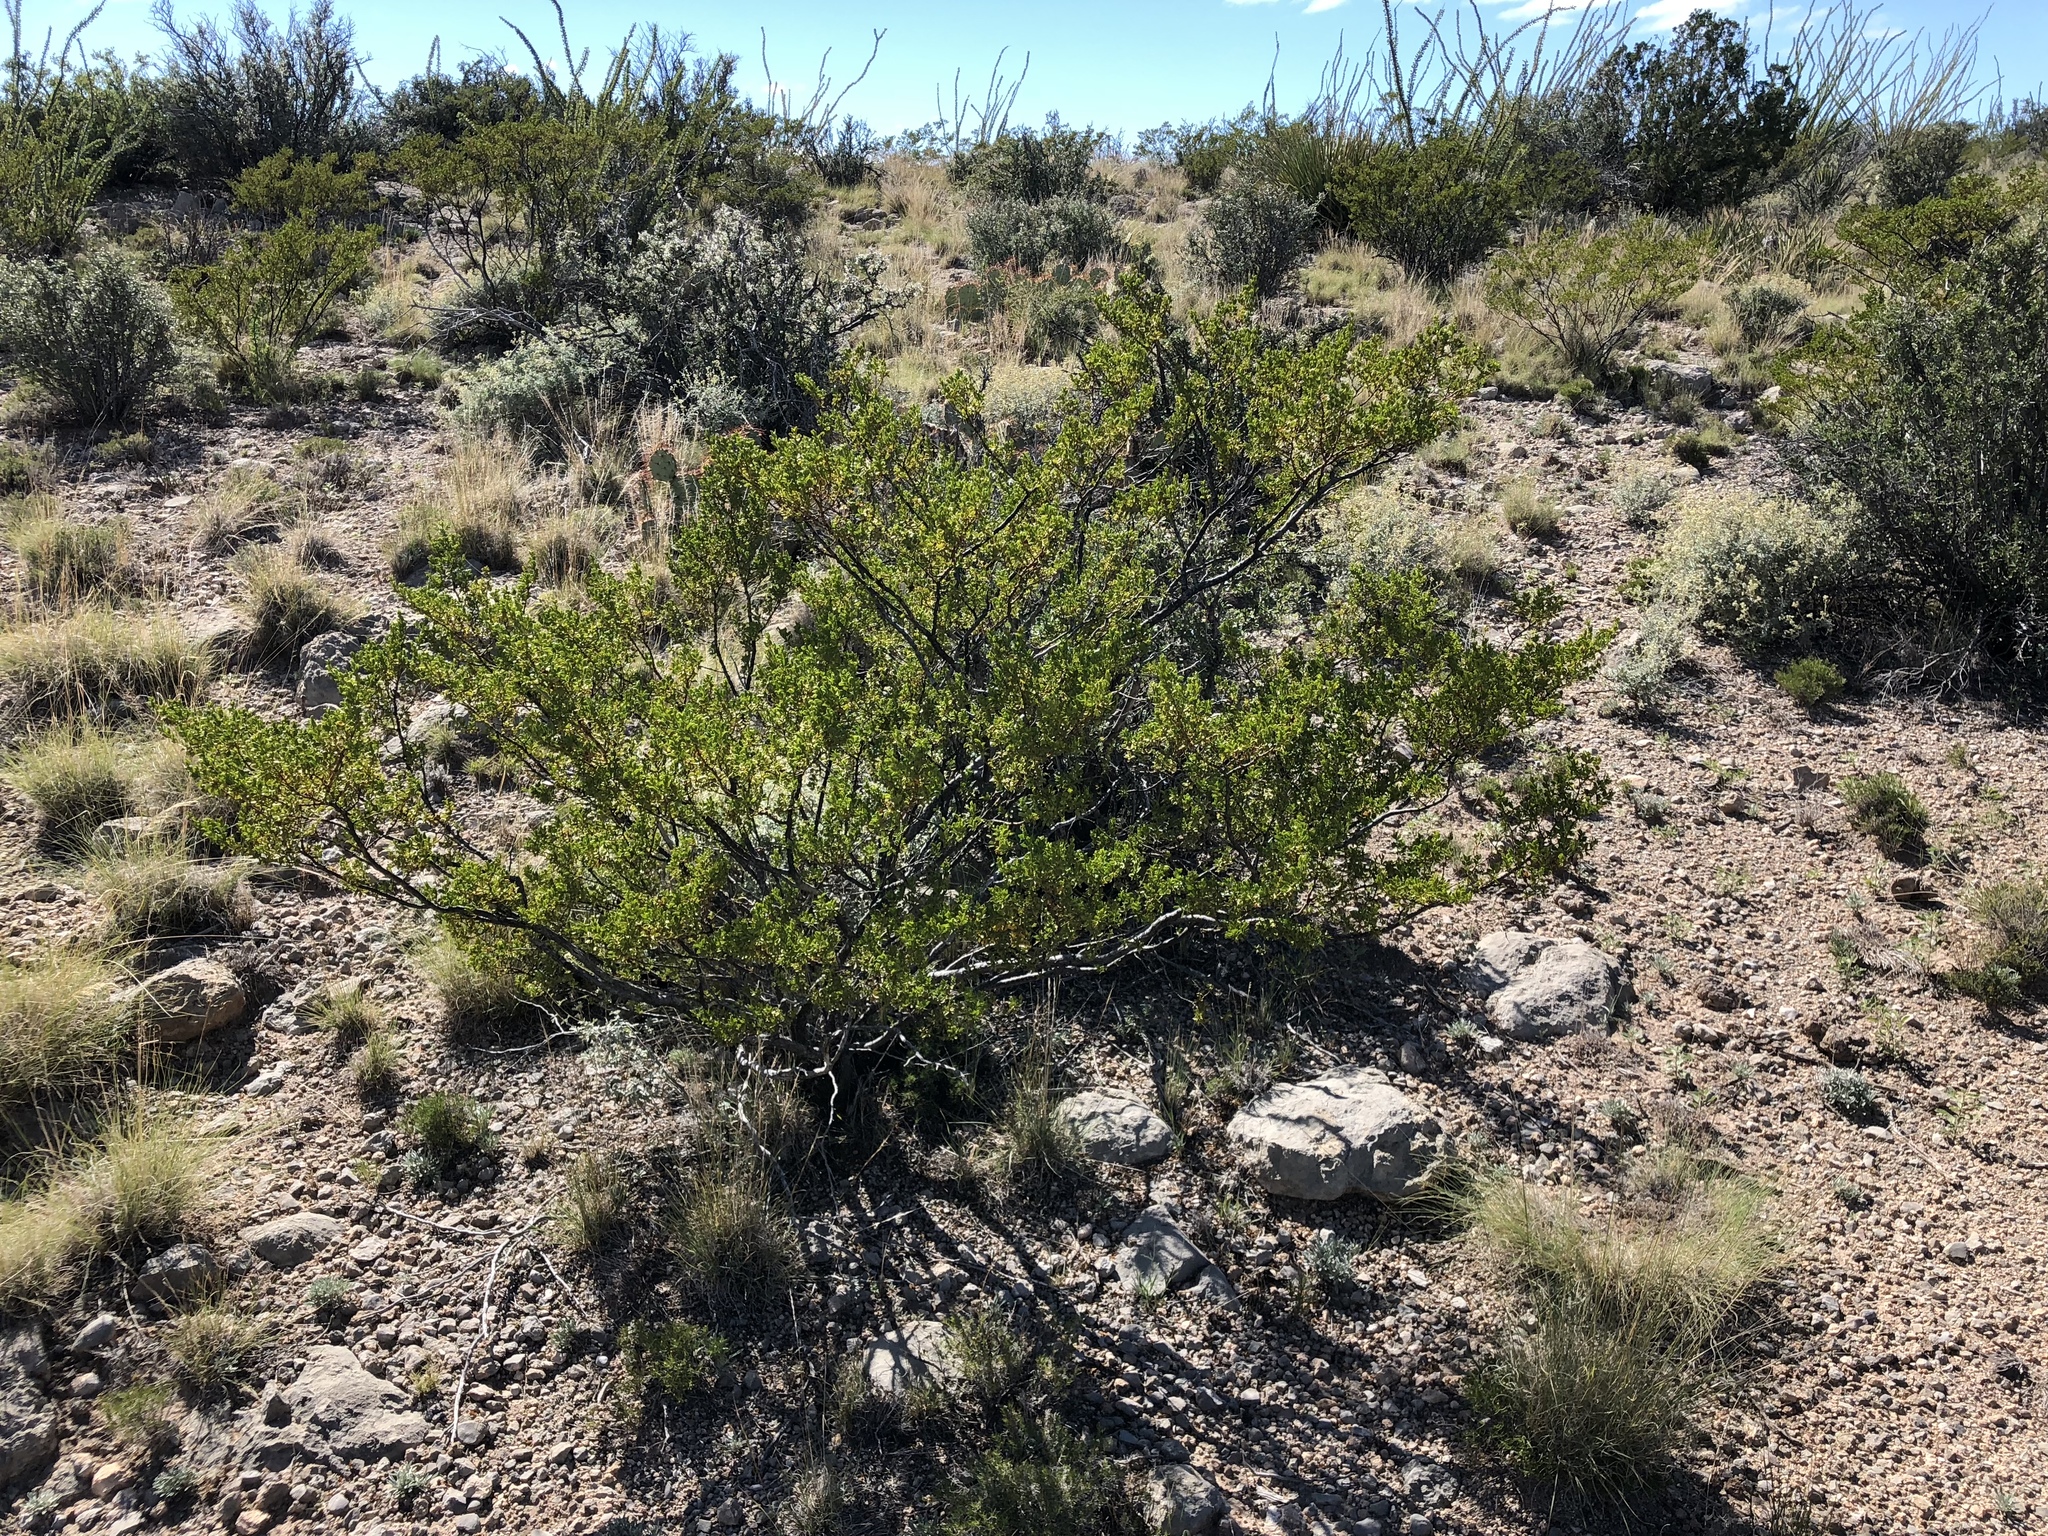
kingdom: Plantae
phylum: Tracheophyta
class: Magnoliopsida
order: Zygophyllales
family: Zygophyllaceae
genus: Larrea
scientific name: Larrea tridentata
